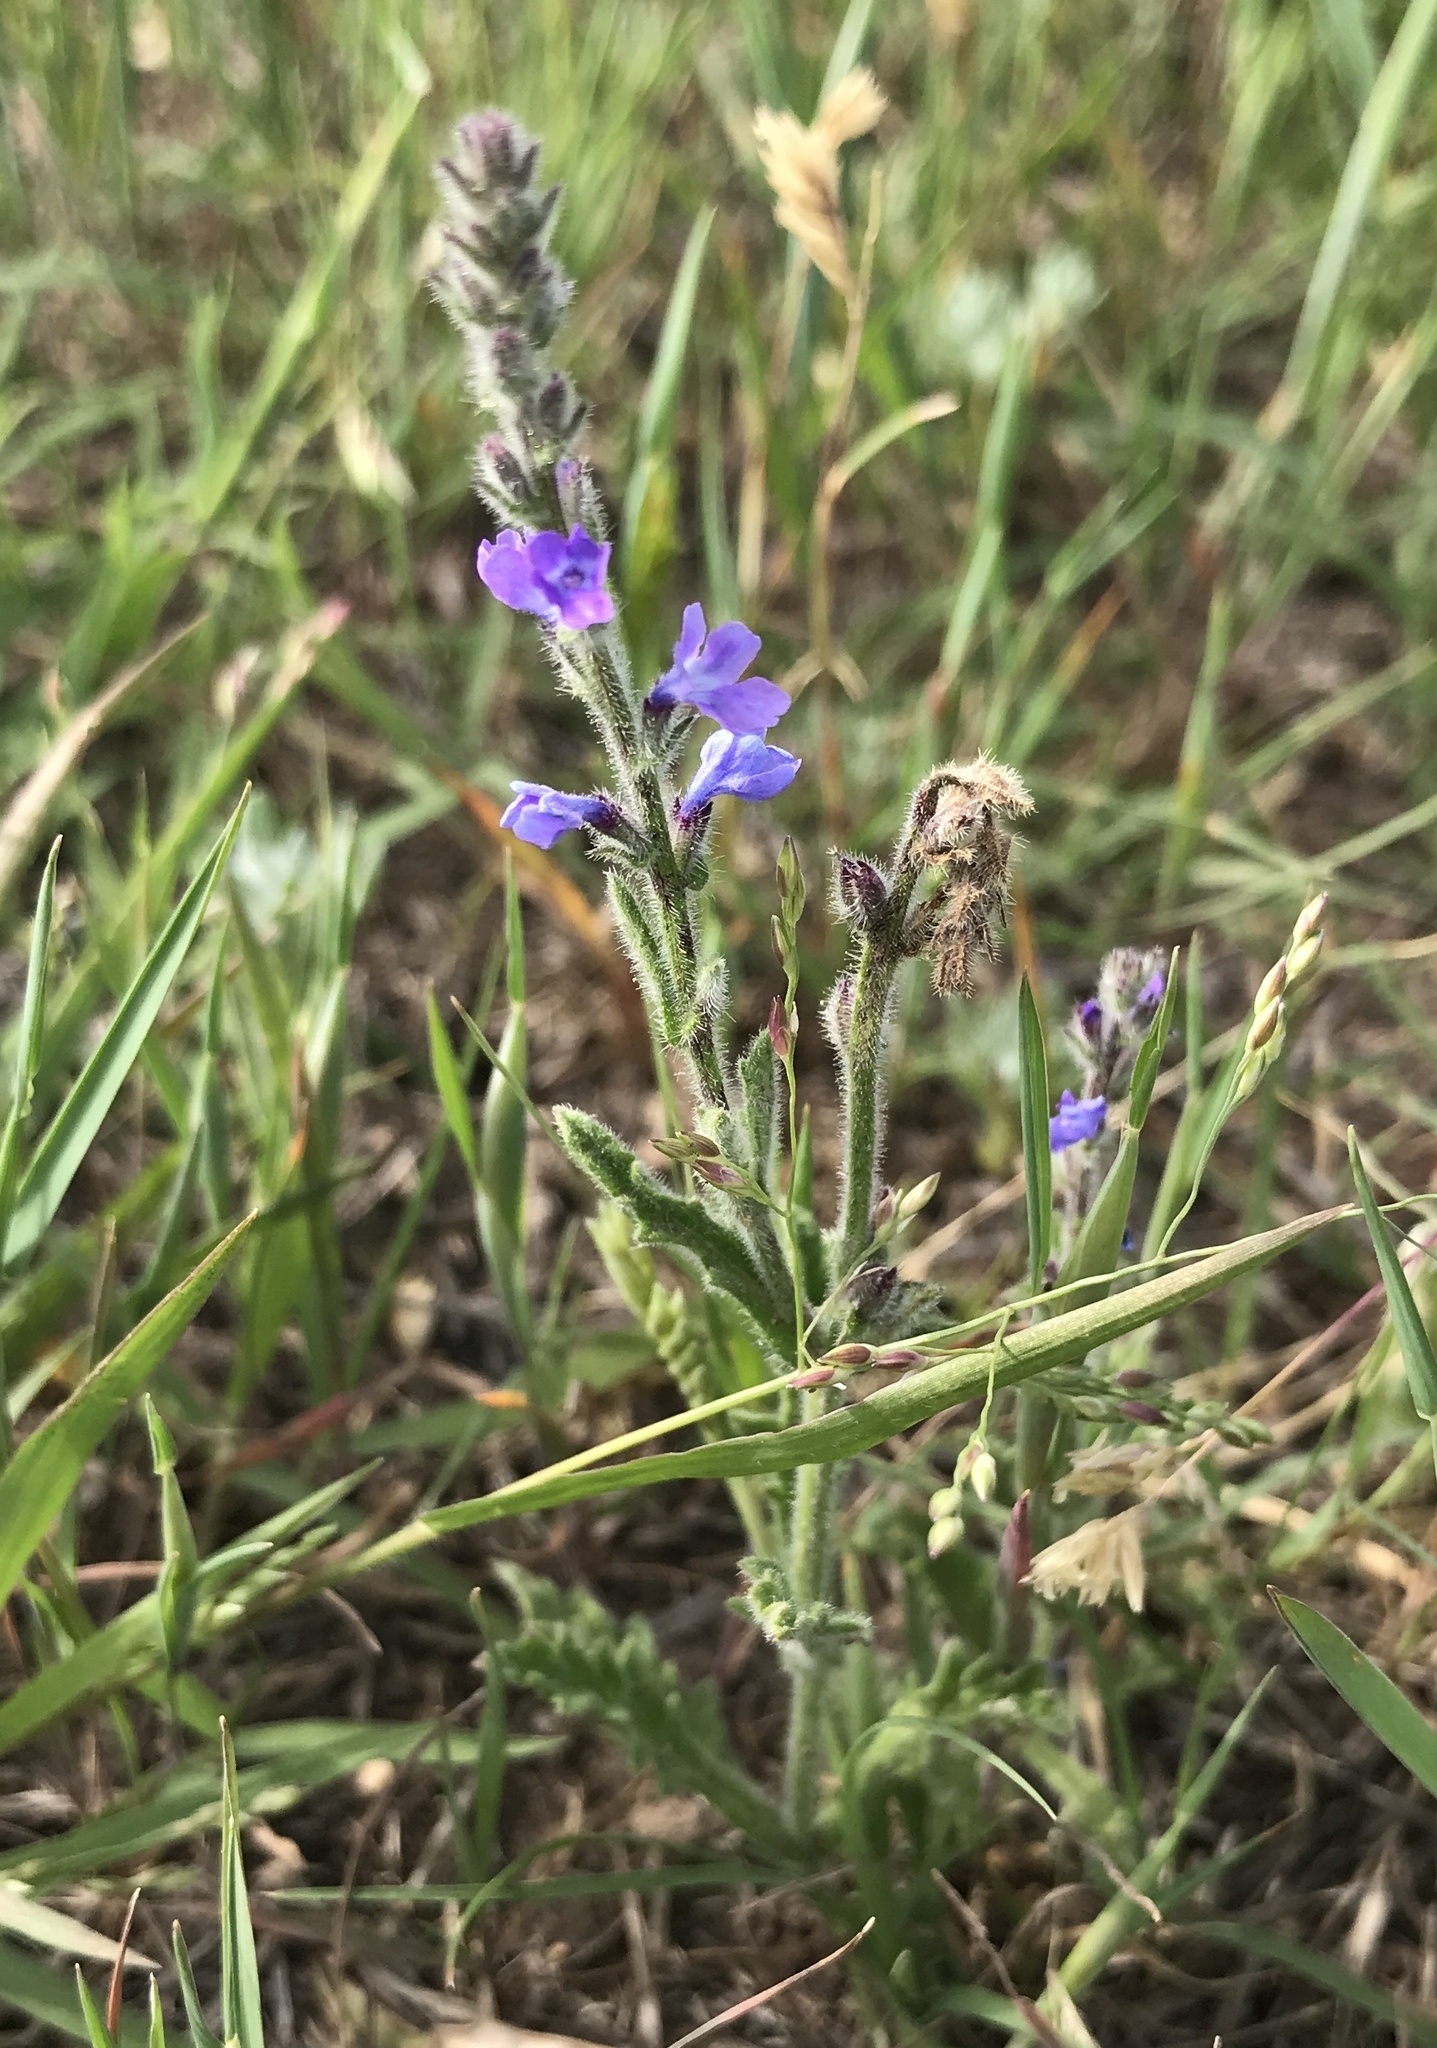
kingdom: Plantae
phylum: Tracheophyta
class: Magnoliopsida
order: Lamiales
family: Verbenaceae
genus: Verbena
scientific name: Verbena canescens
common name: Gray vervain
